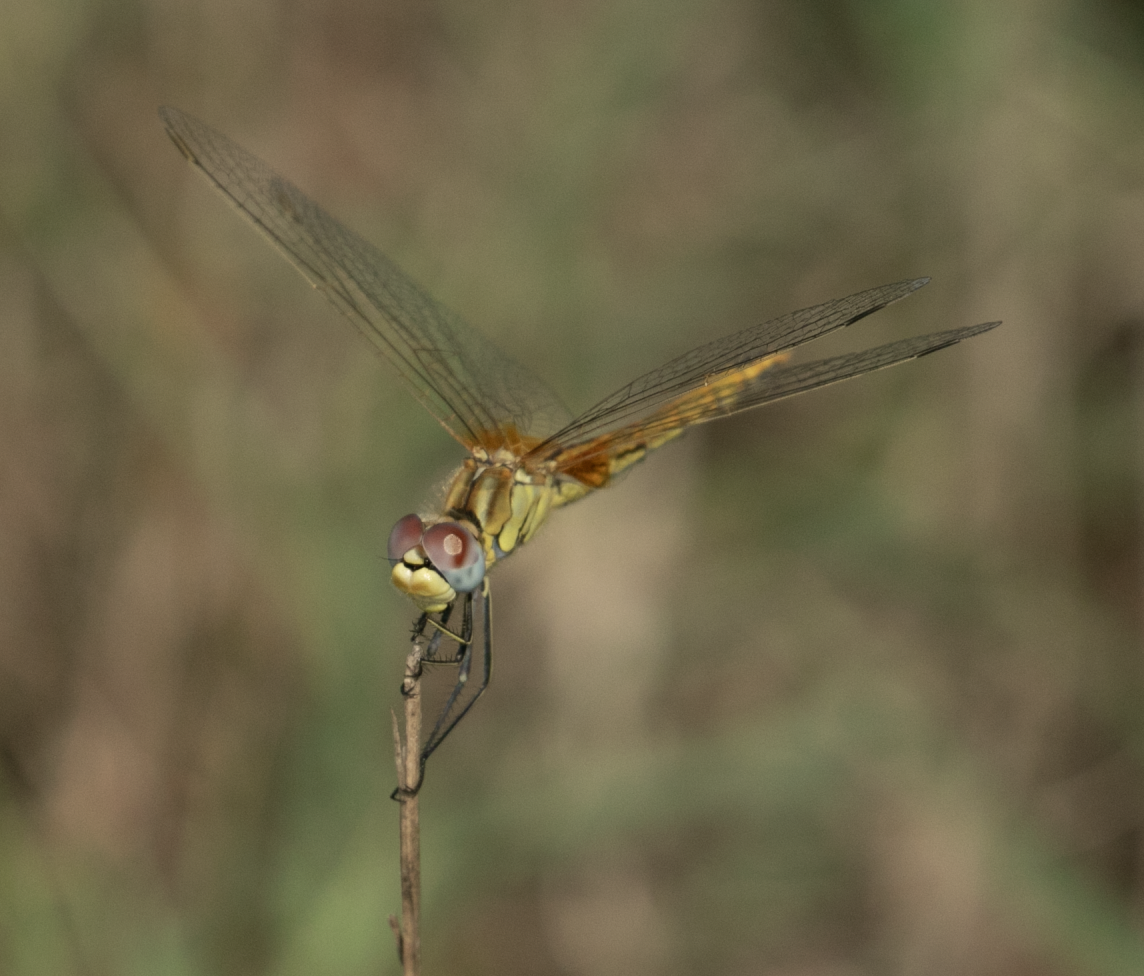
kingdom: Animalia
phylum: Arthropoda
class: Insecta
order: Odonata
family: Libellulidae
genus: Sympetrum
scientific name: Sympetrum fonscolombii
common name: Red-veined darter
